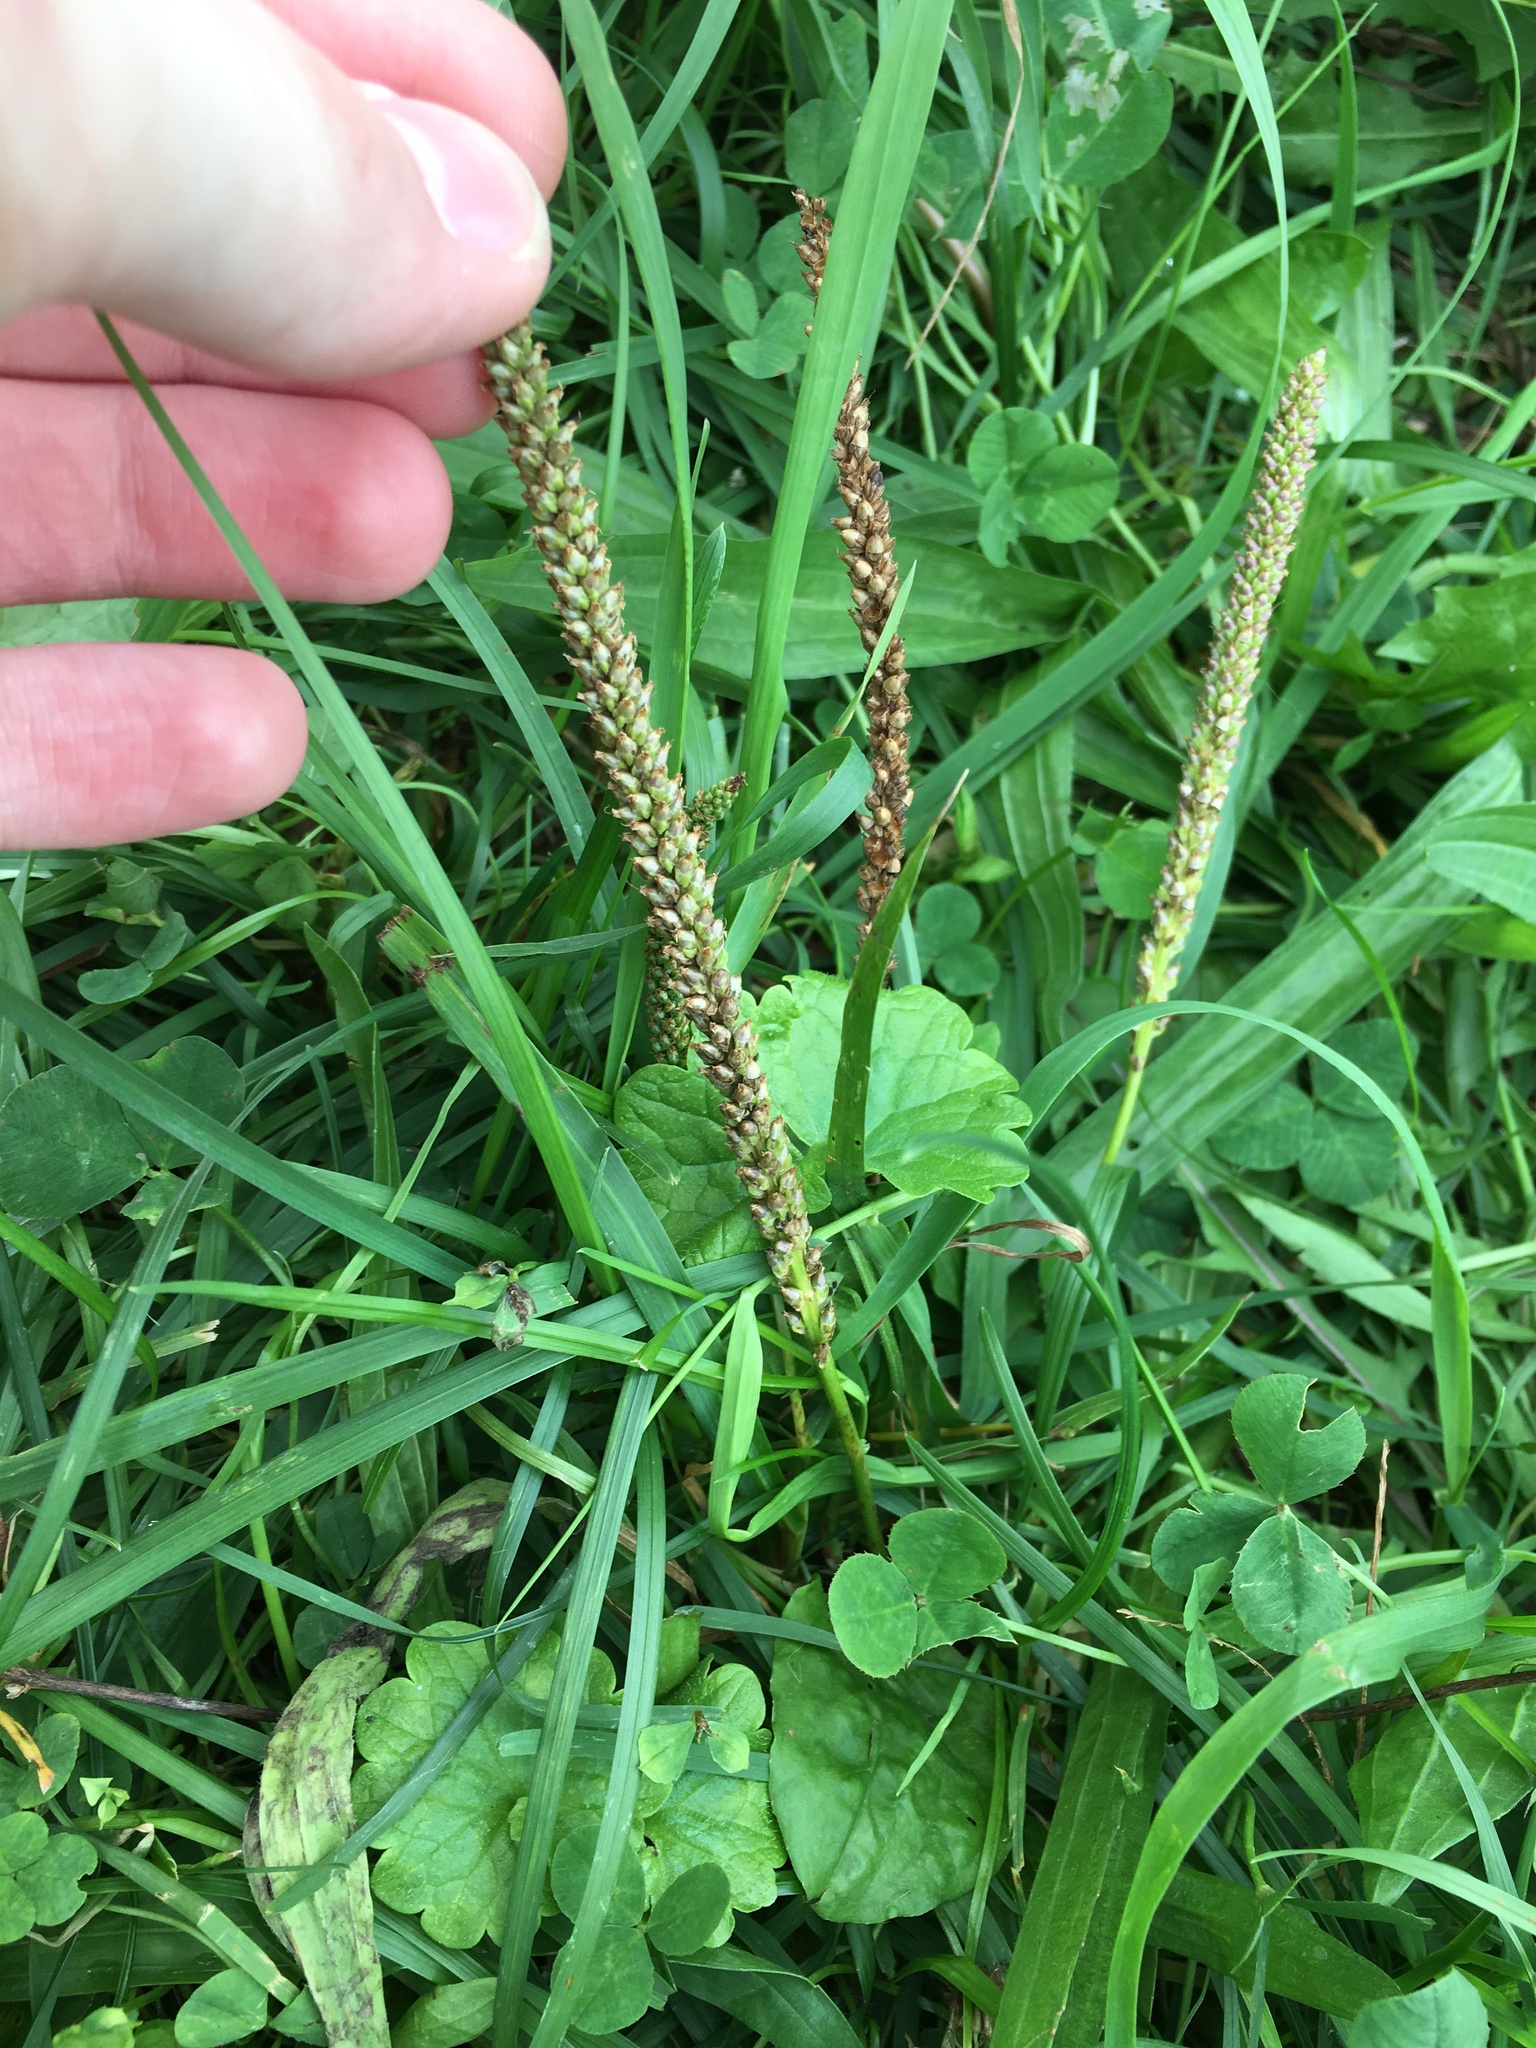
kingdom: Plantae
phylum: Tracheophyta
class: Magnoliopsida
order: Lamiales
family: Plantaginaceae
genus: Plantago
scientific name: Plantago major
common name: Common plantain
